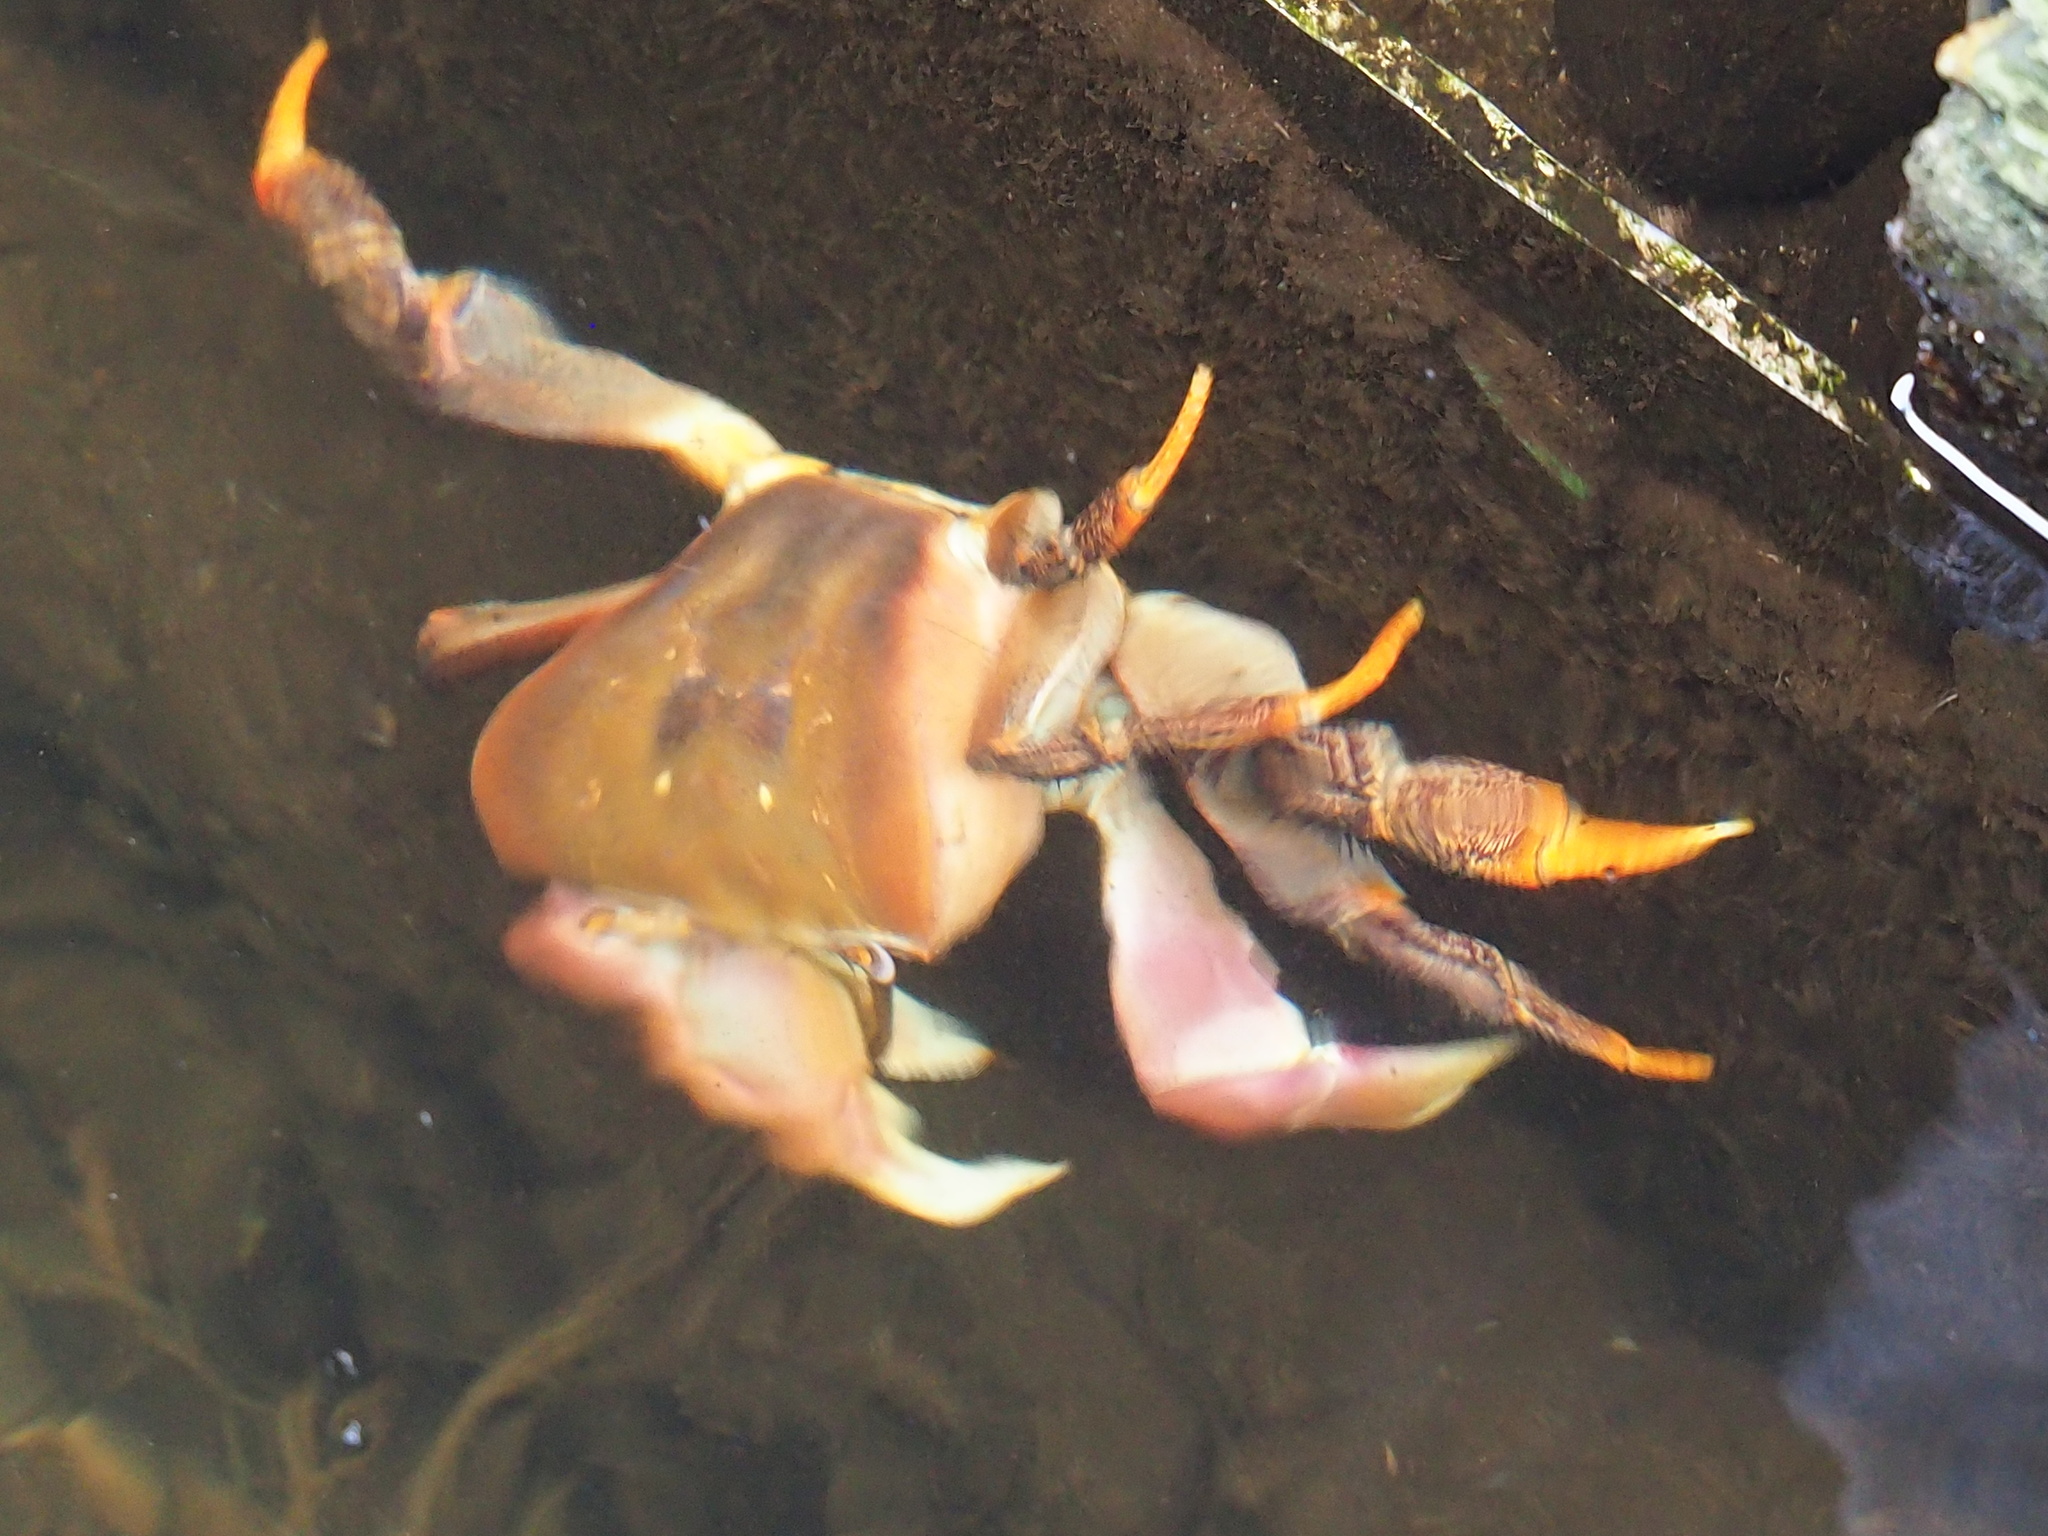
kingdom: Animalia
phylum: Arthropoda
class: Malacostraca
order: Decapoda
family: Gecarcinidae
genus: Cardisoma
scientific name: Cardisoma carnifex
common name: Brown land crab
